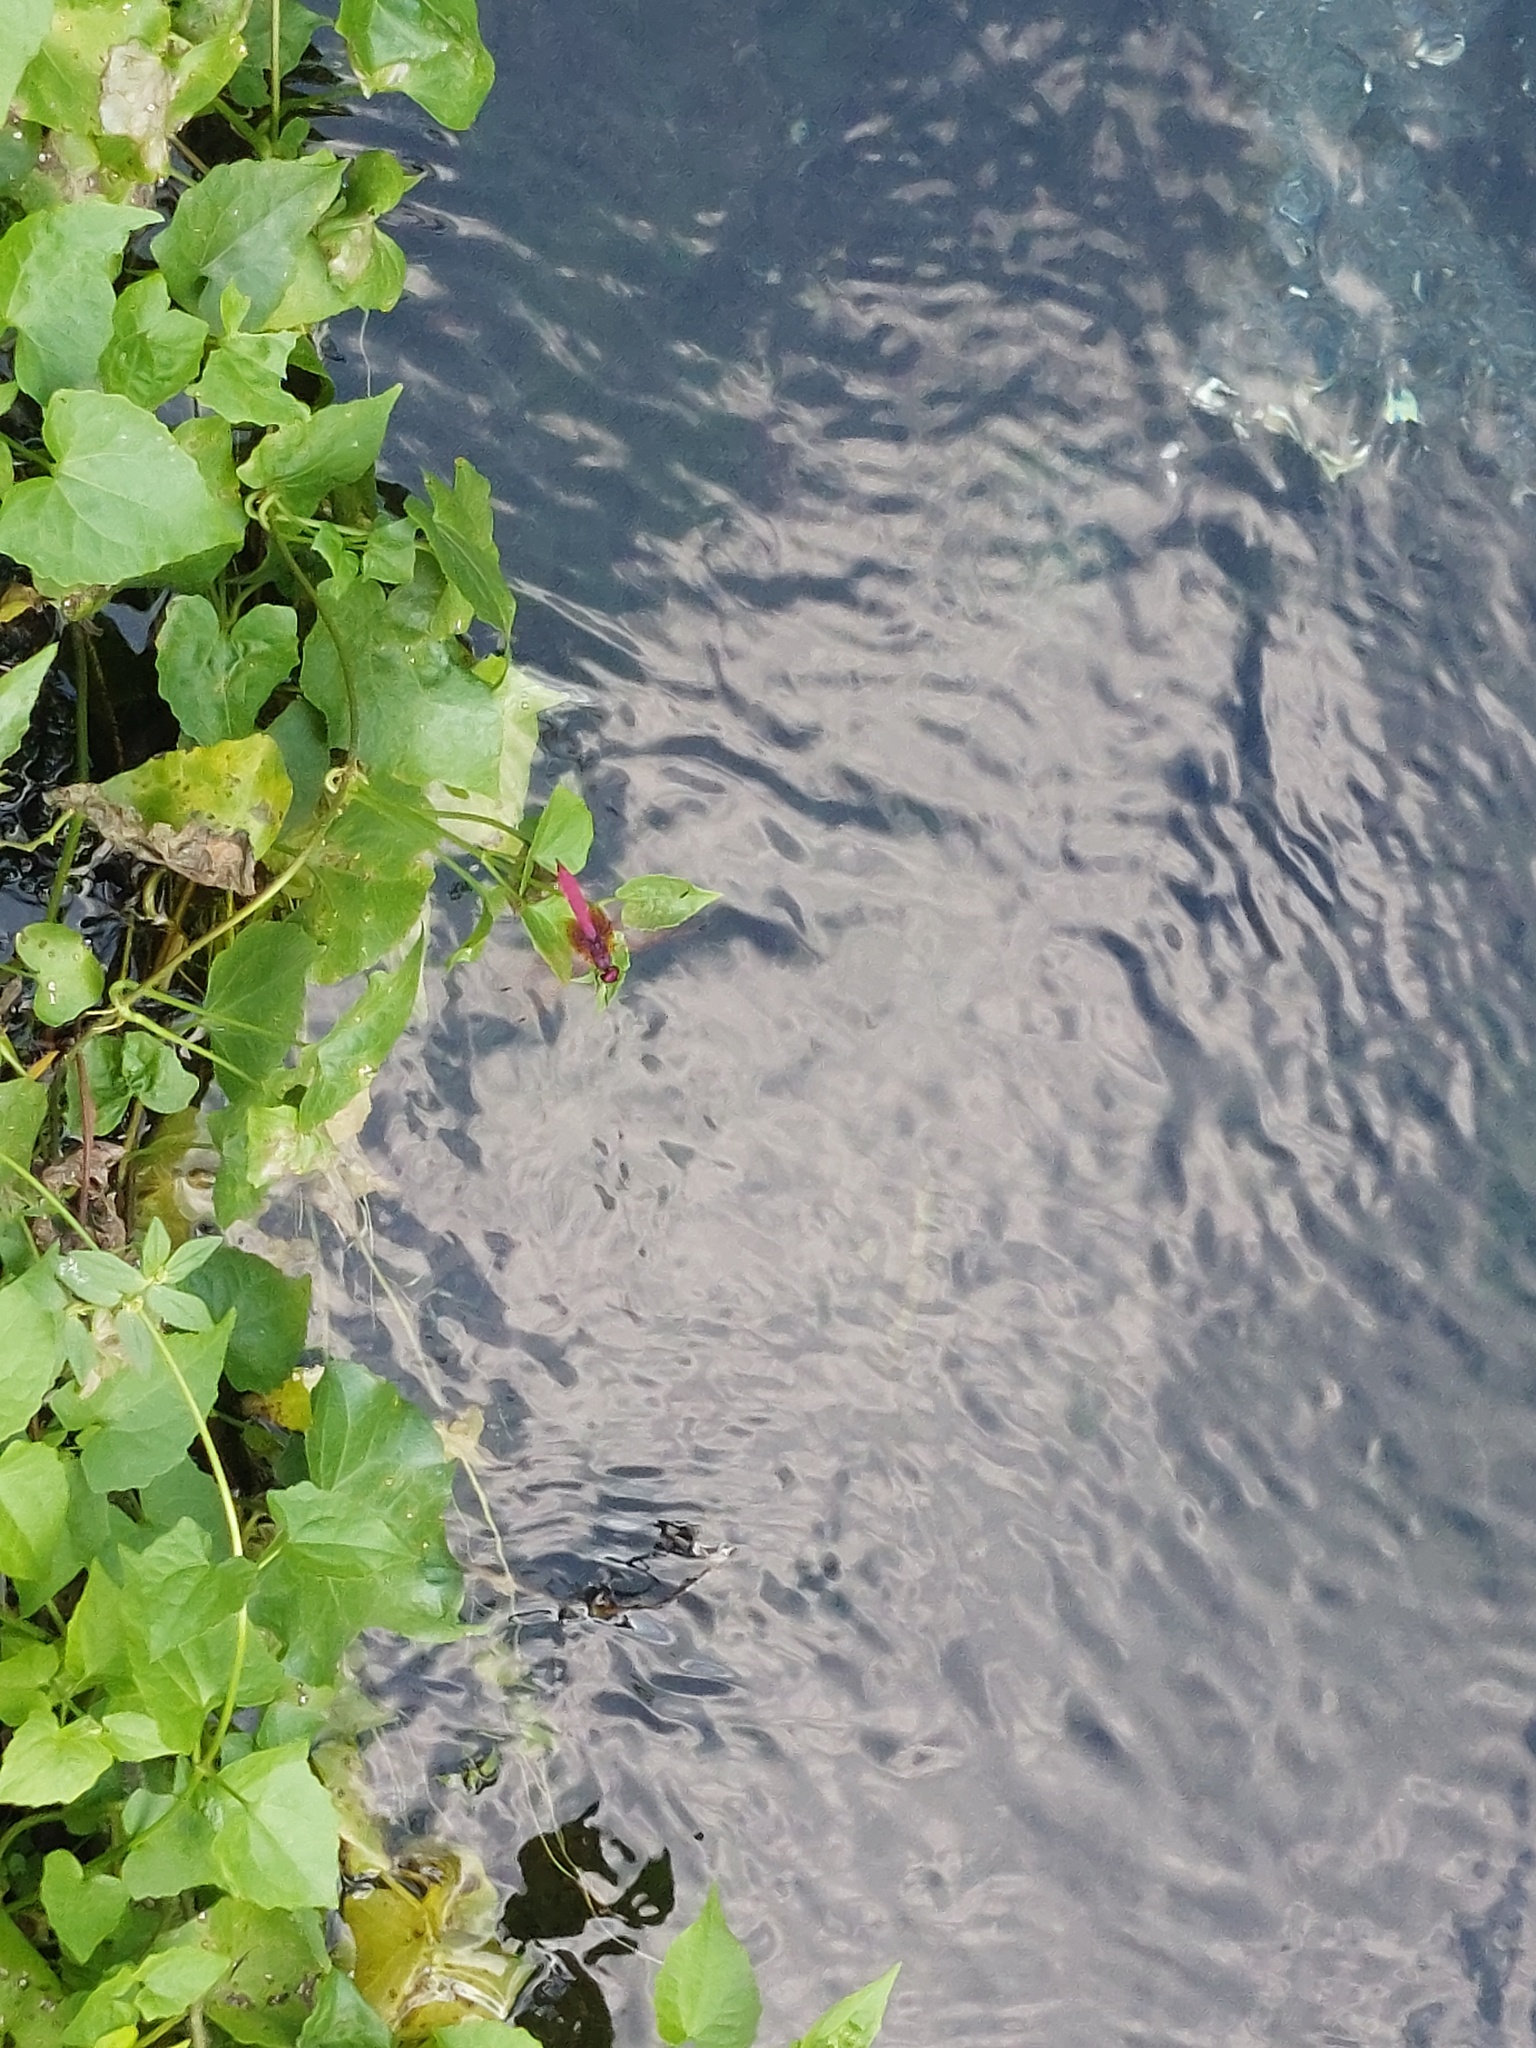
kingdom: Animalia
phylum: Arthropoda
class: Insecta
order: Odonata
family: Libellulidae
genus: Trithemis
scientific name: Trithemis aurora
